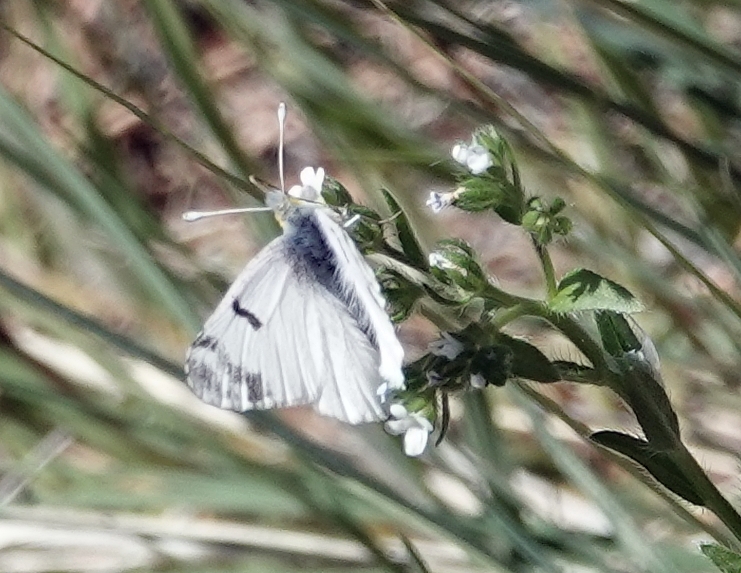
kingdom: Animalia
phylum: Arthropoda
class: Insecta
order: Lepidoptera
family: Pieridae
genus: Euchloe
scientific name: Euchloe olympia
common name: Olympia
